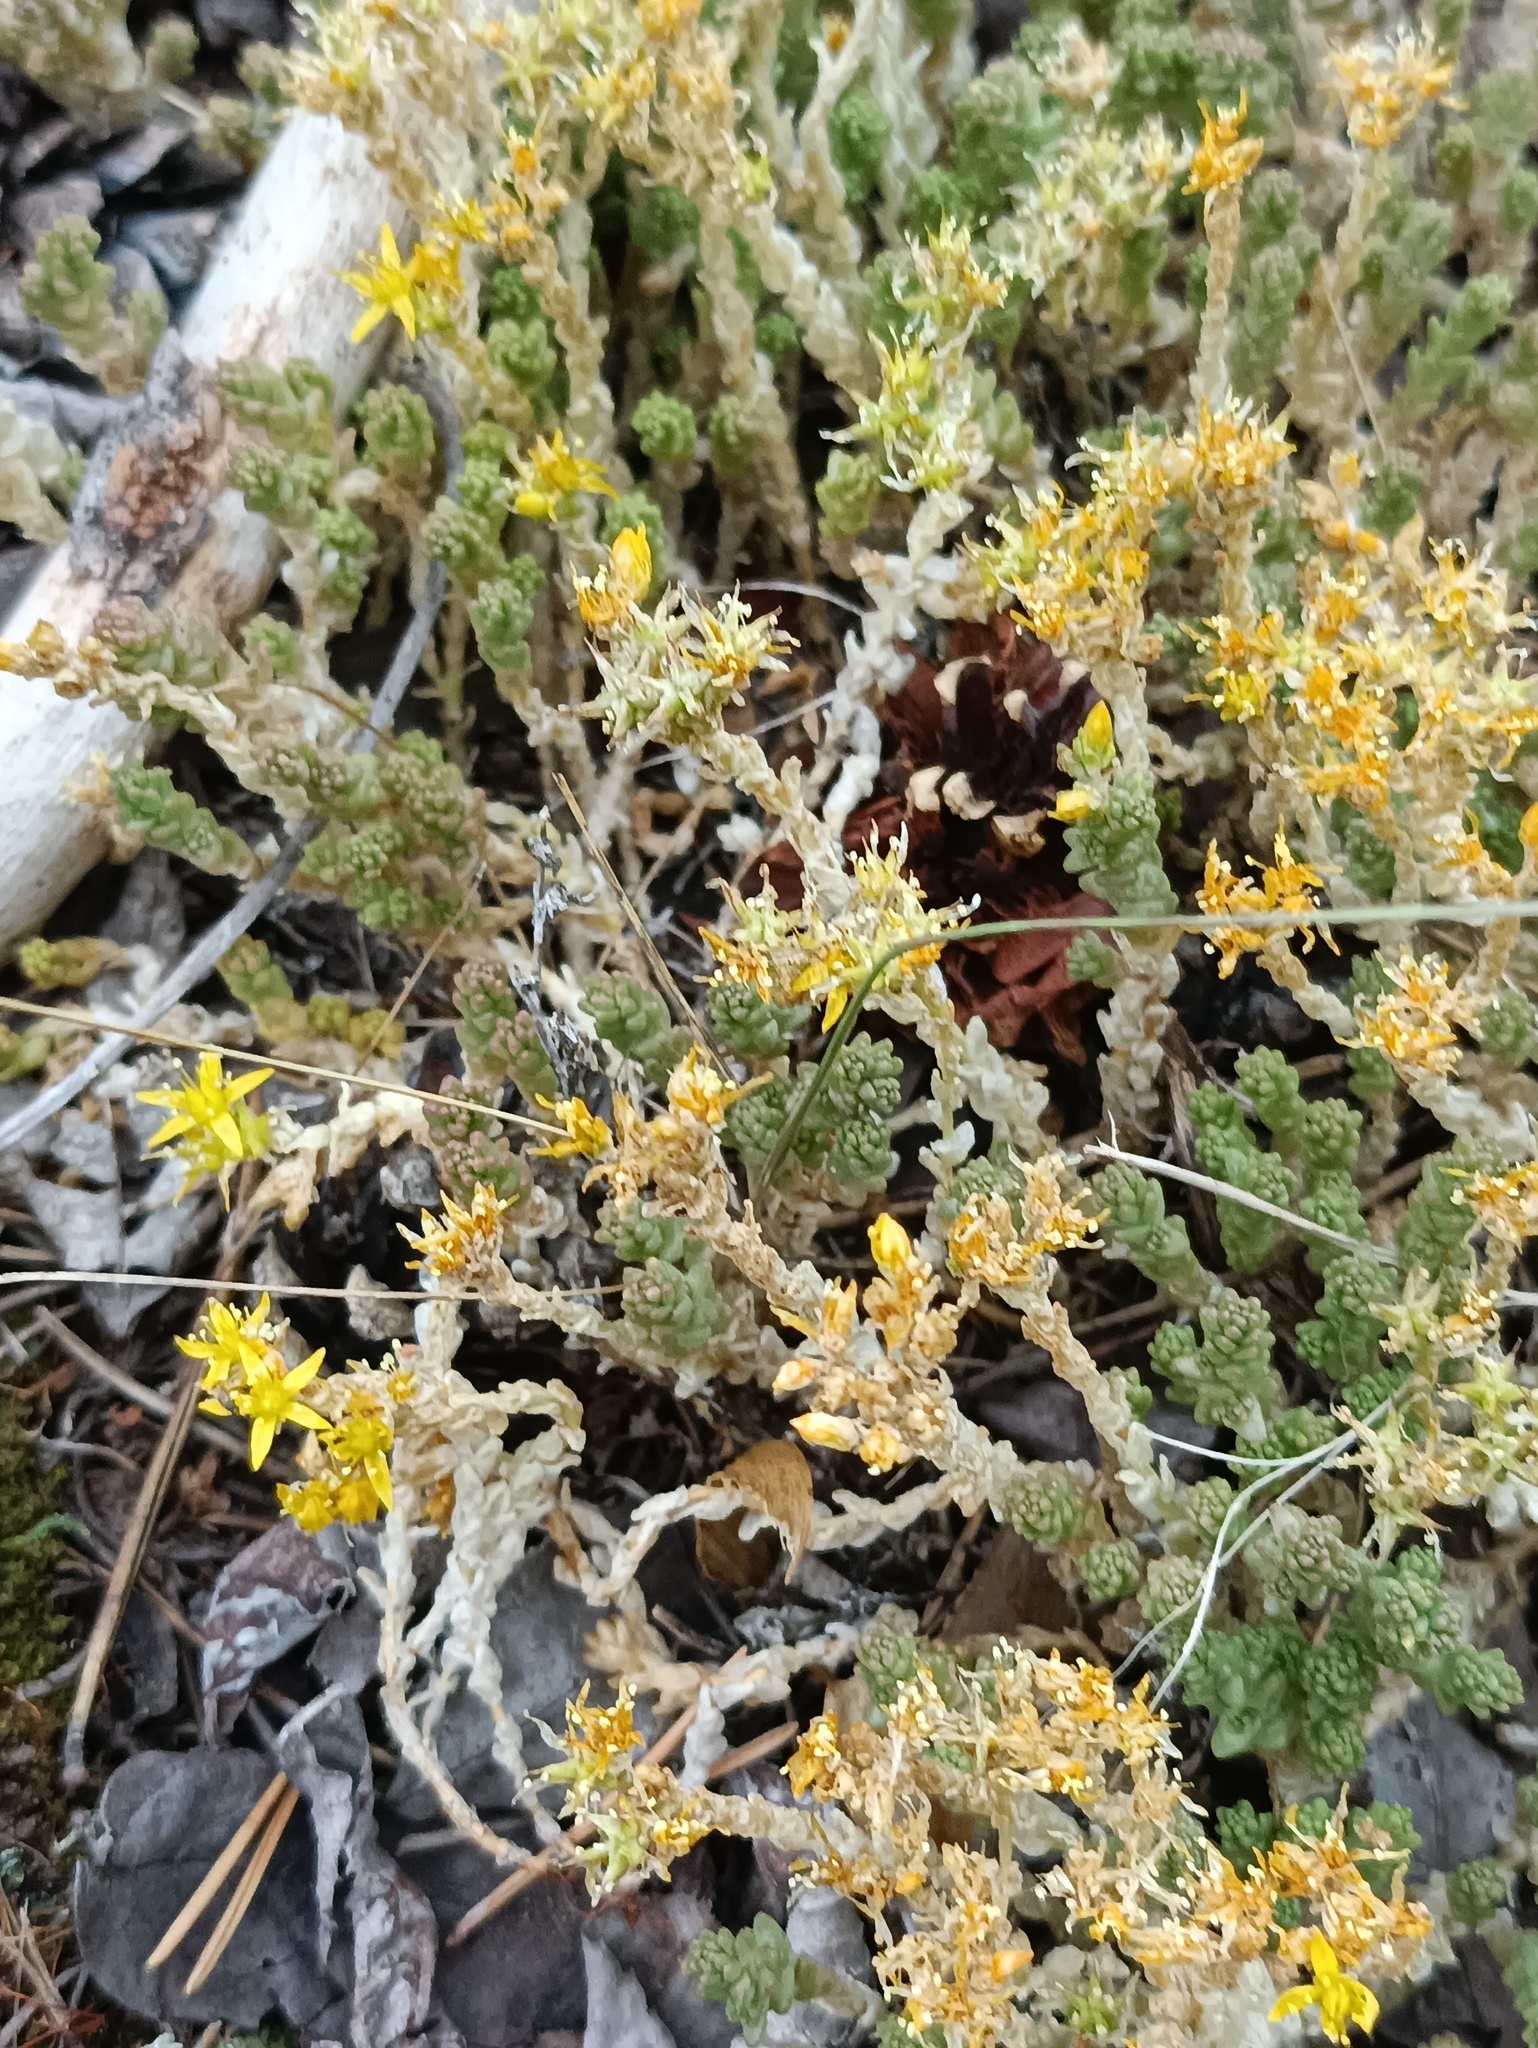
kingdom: Plantae
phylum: Tracheophyta
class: Magnoliopsida
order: Saxifragales
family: Crassulaceae
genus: Sedum
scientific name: Sedum acre
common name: Biting stonecrop
